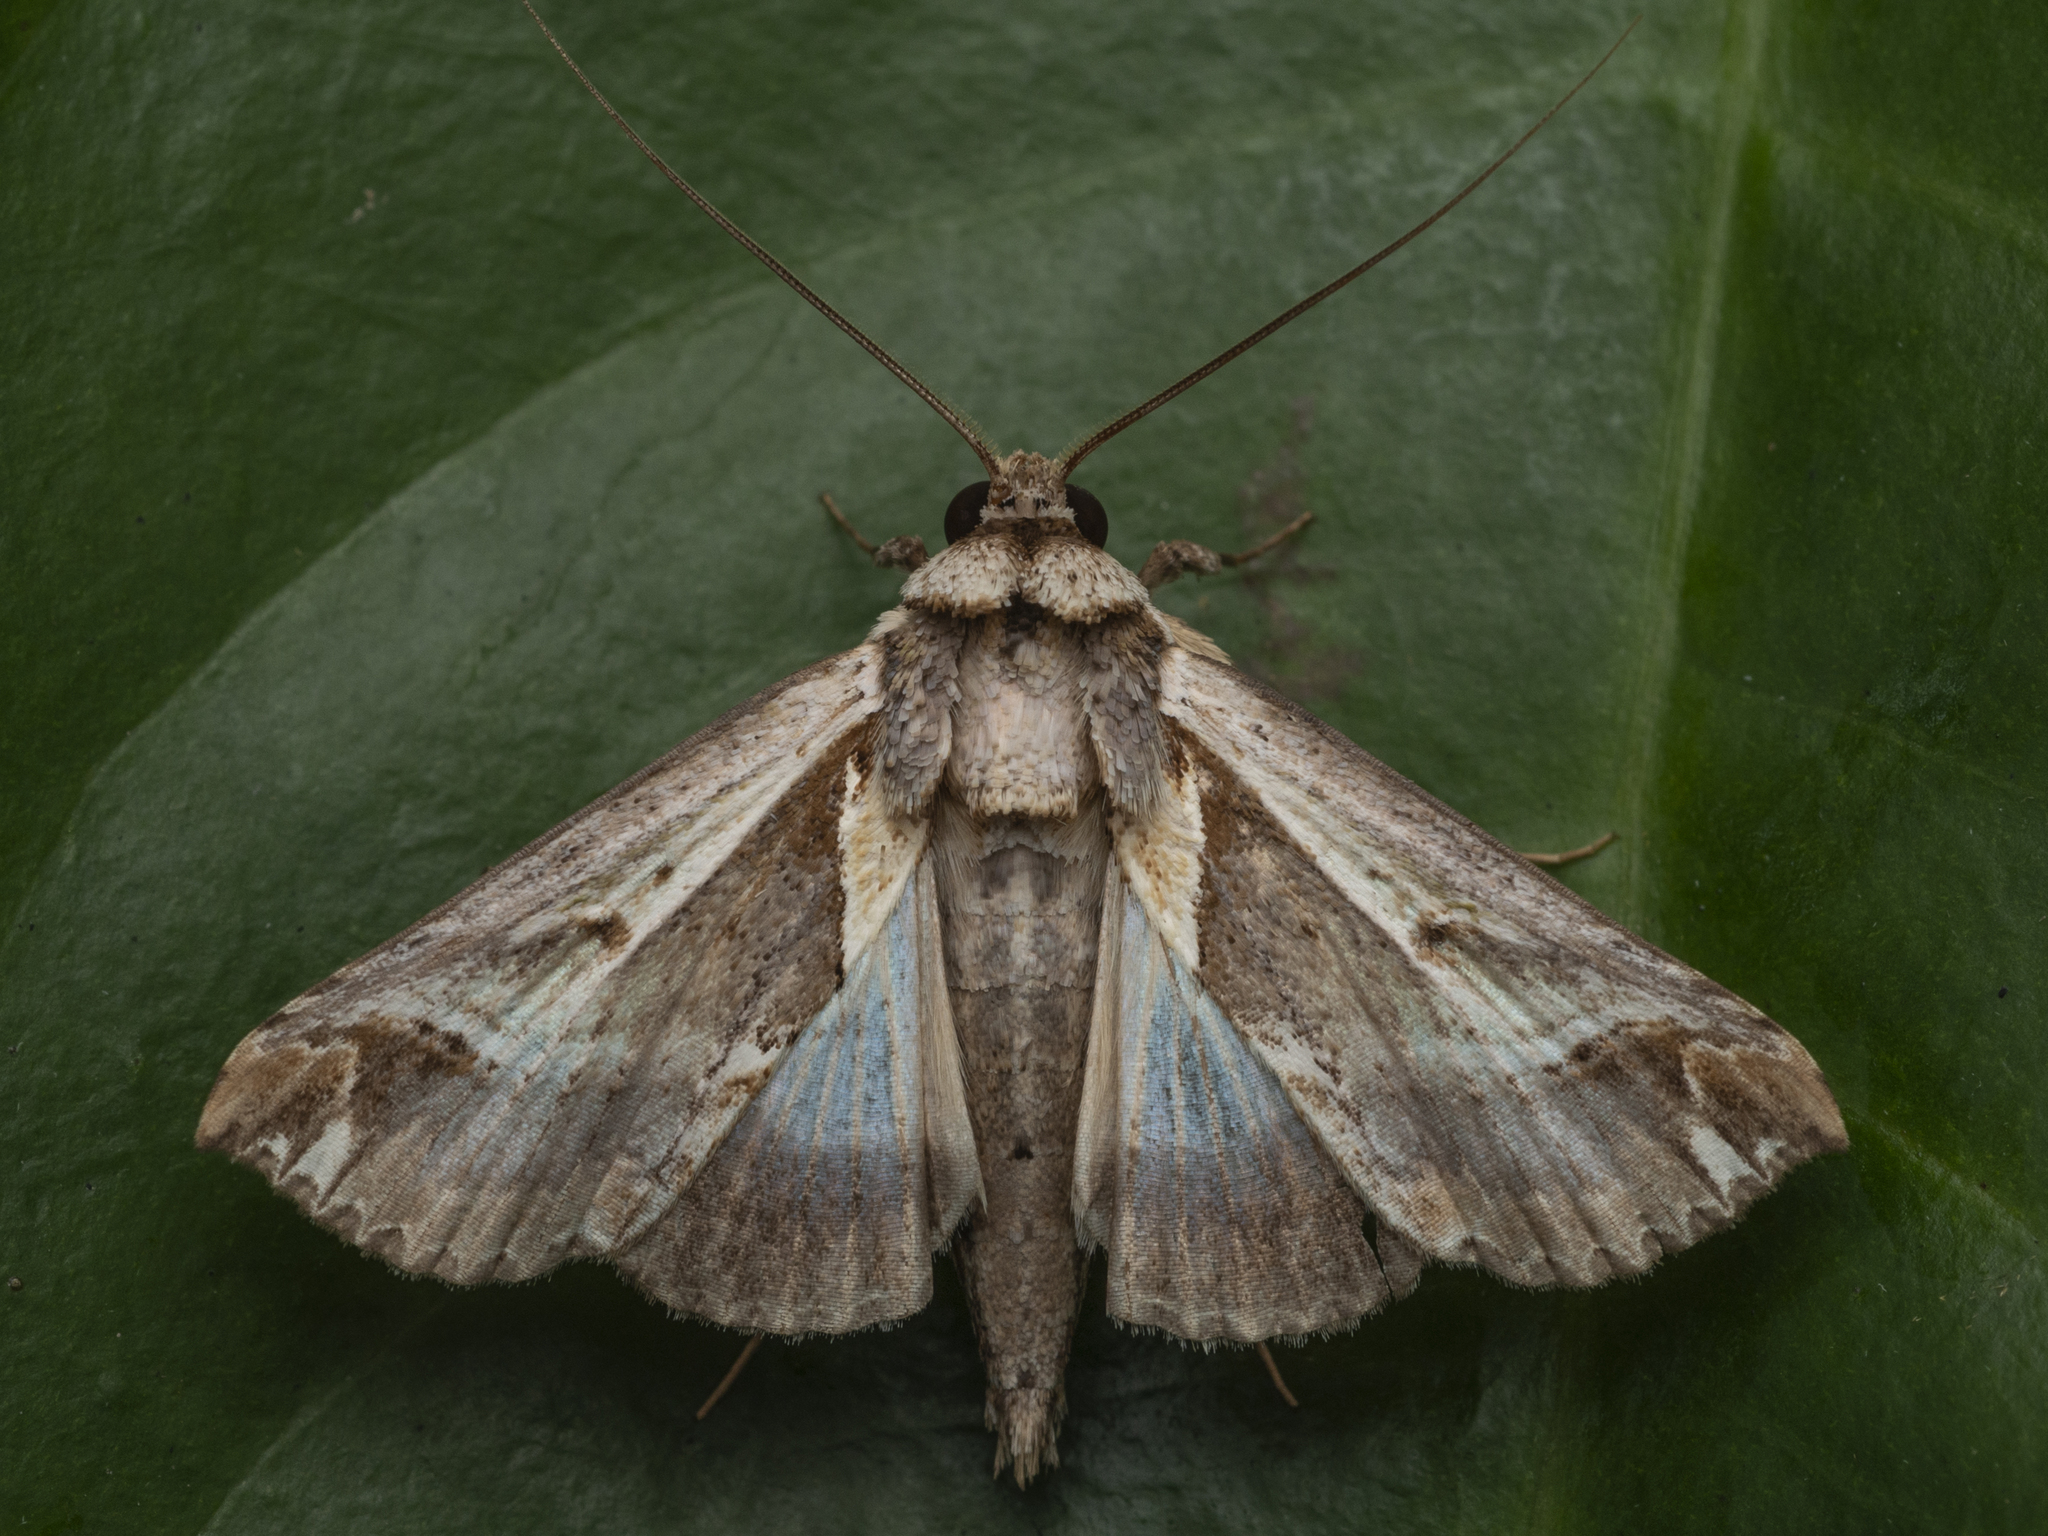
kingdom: Animalia
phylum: Arthropoda
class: Insecta
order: Lepidoptera
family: Nolidae
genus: Risoba
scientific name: Risoba diversipennis
